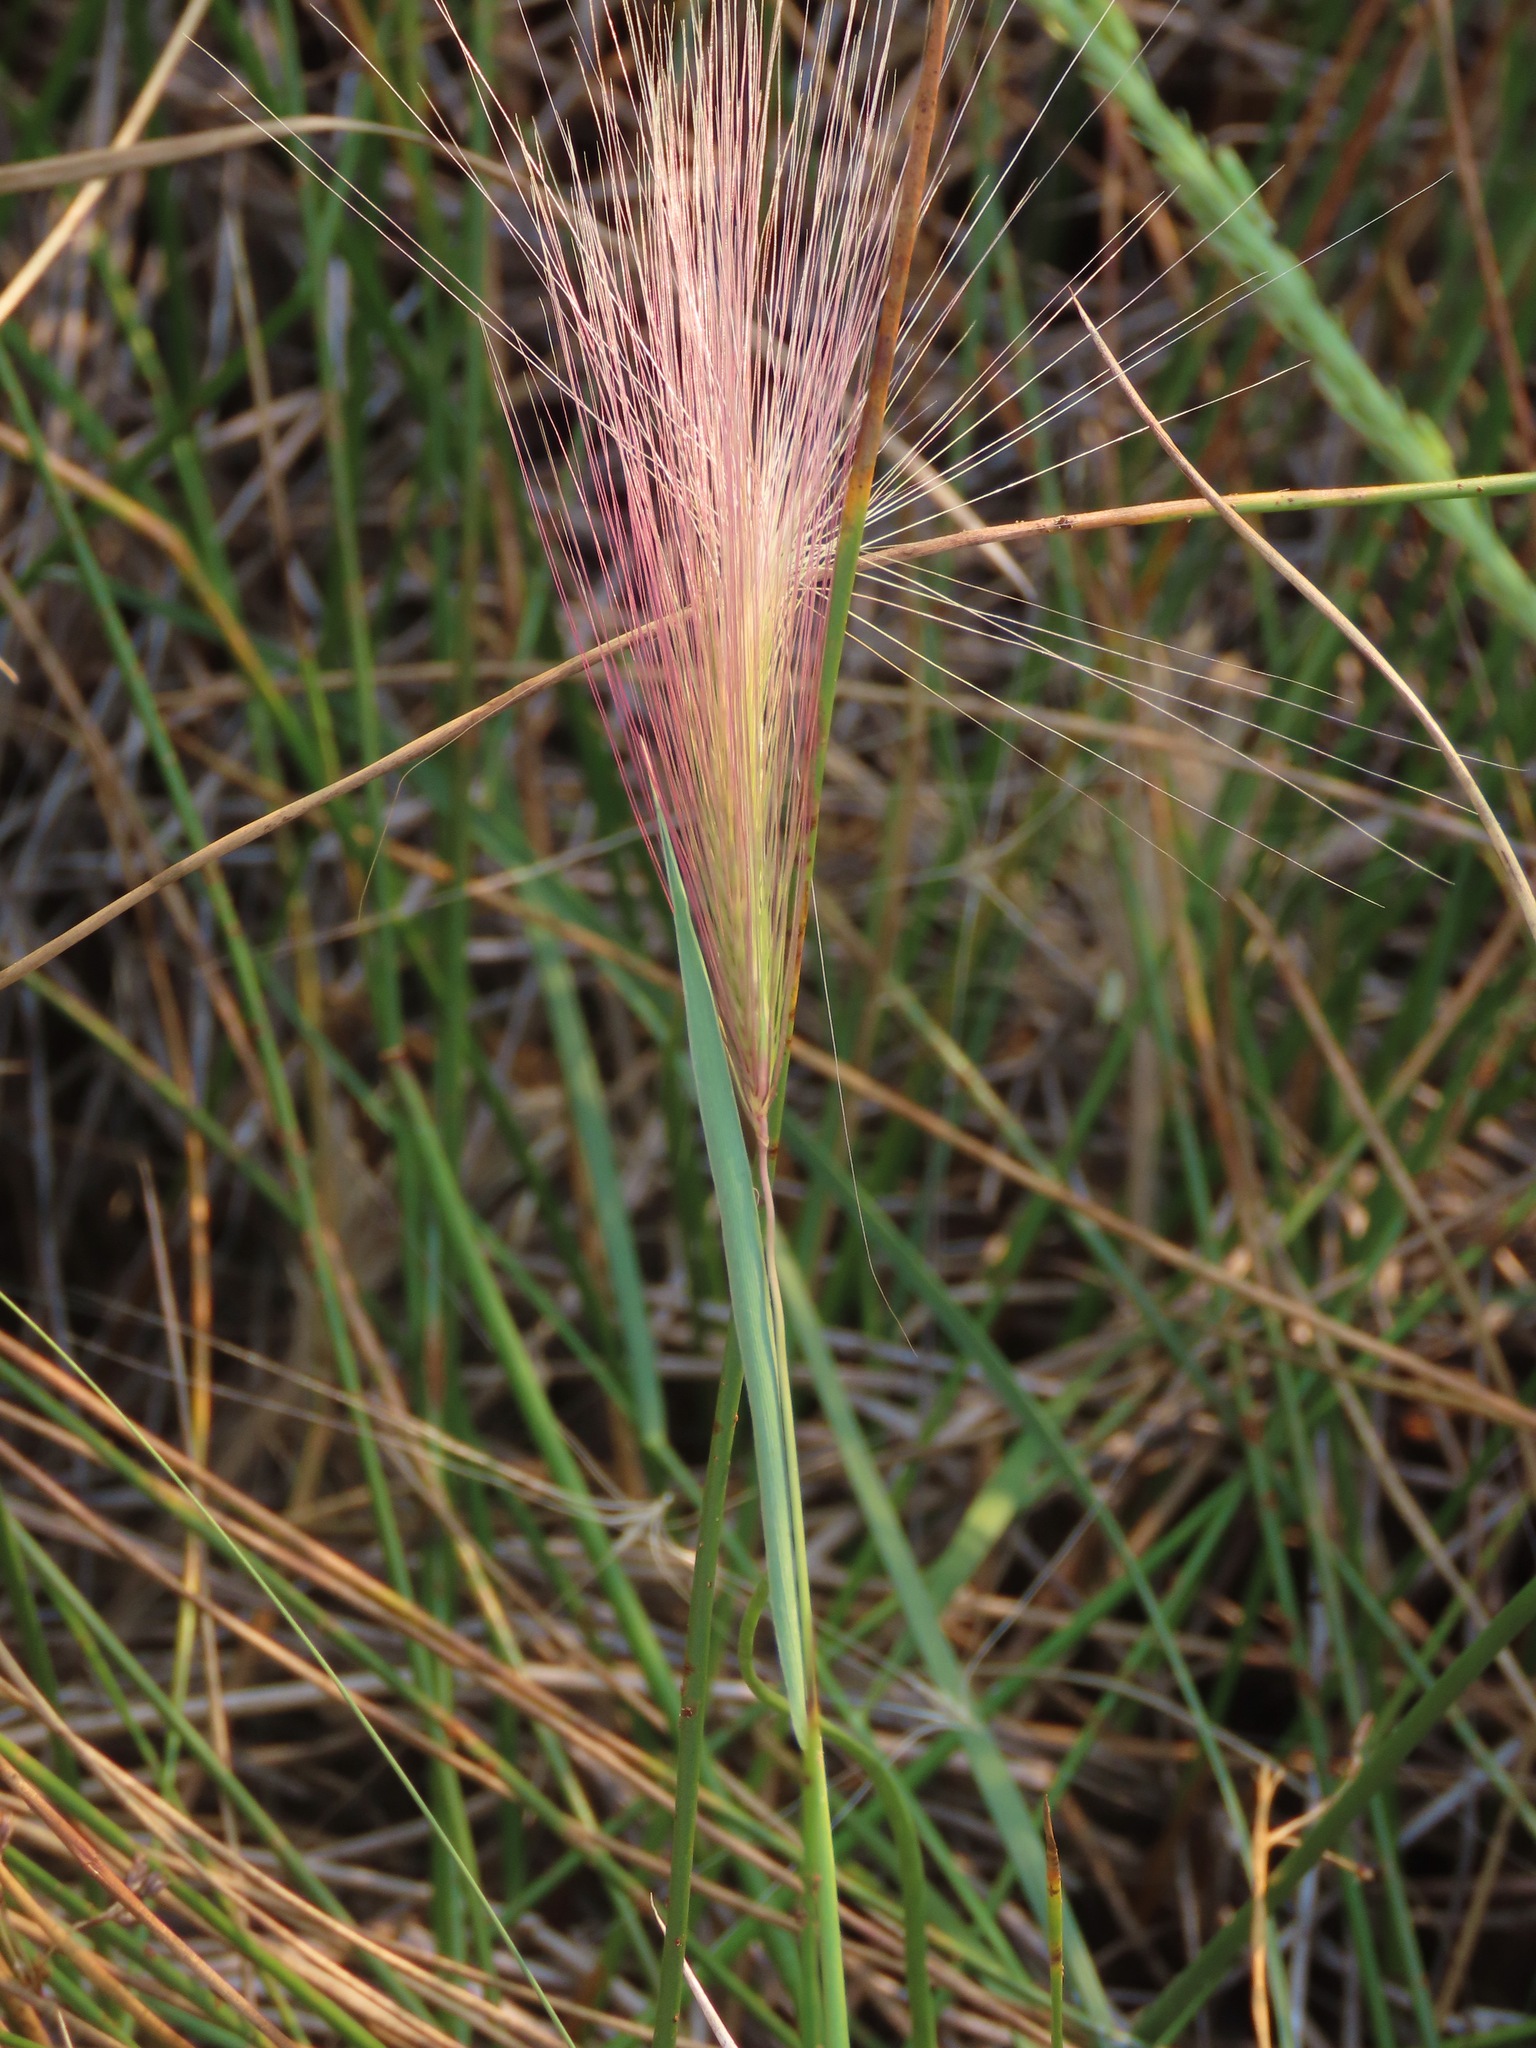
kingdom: Plantae
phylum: Tracheophyta
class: Liliopsida
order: Poales
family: Poaceae
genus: Hordeum
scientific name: Hordeum jubatum
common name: Foxtail barley
